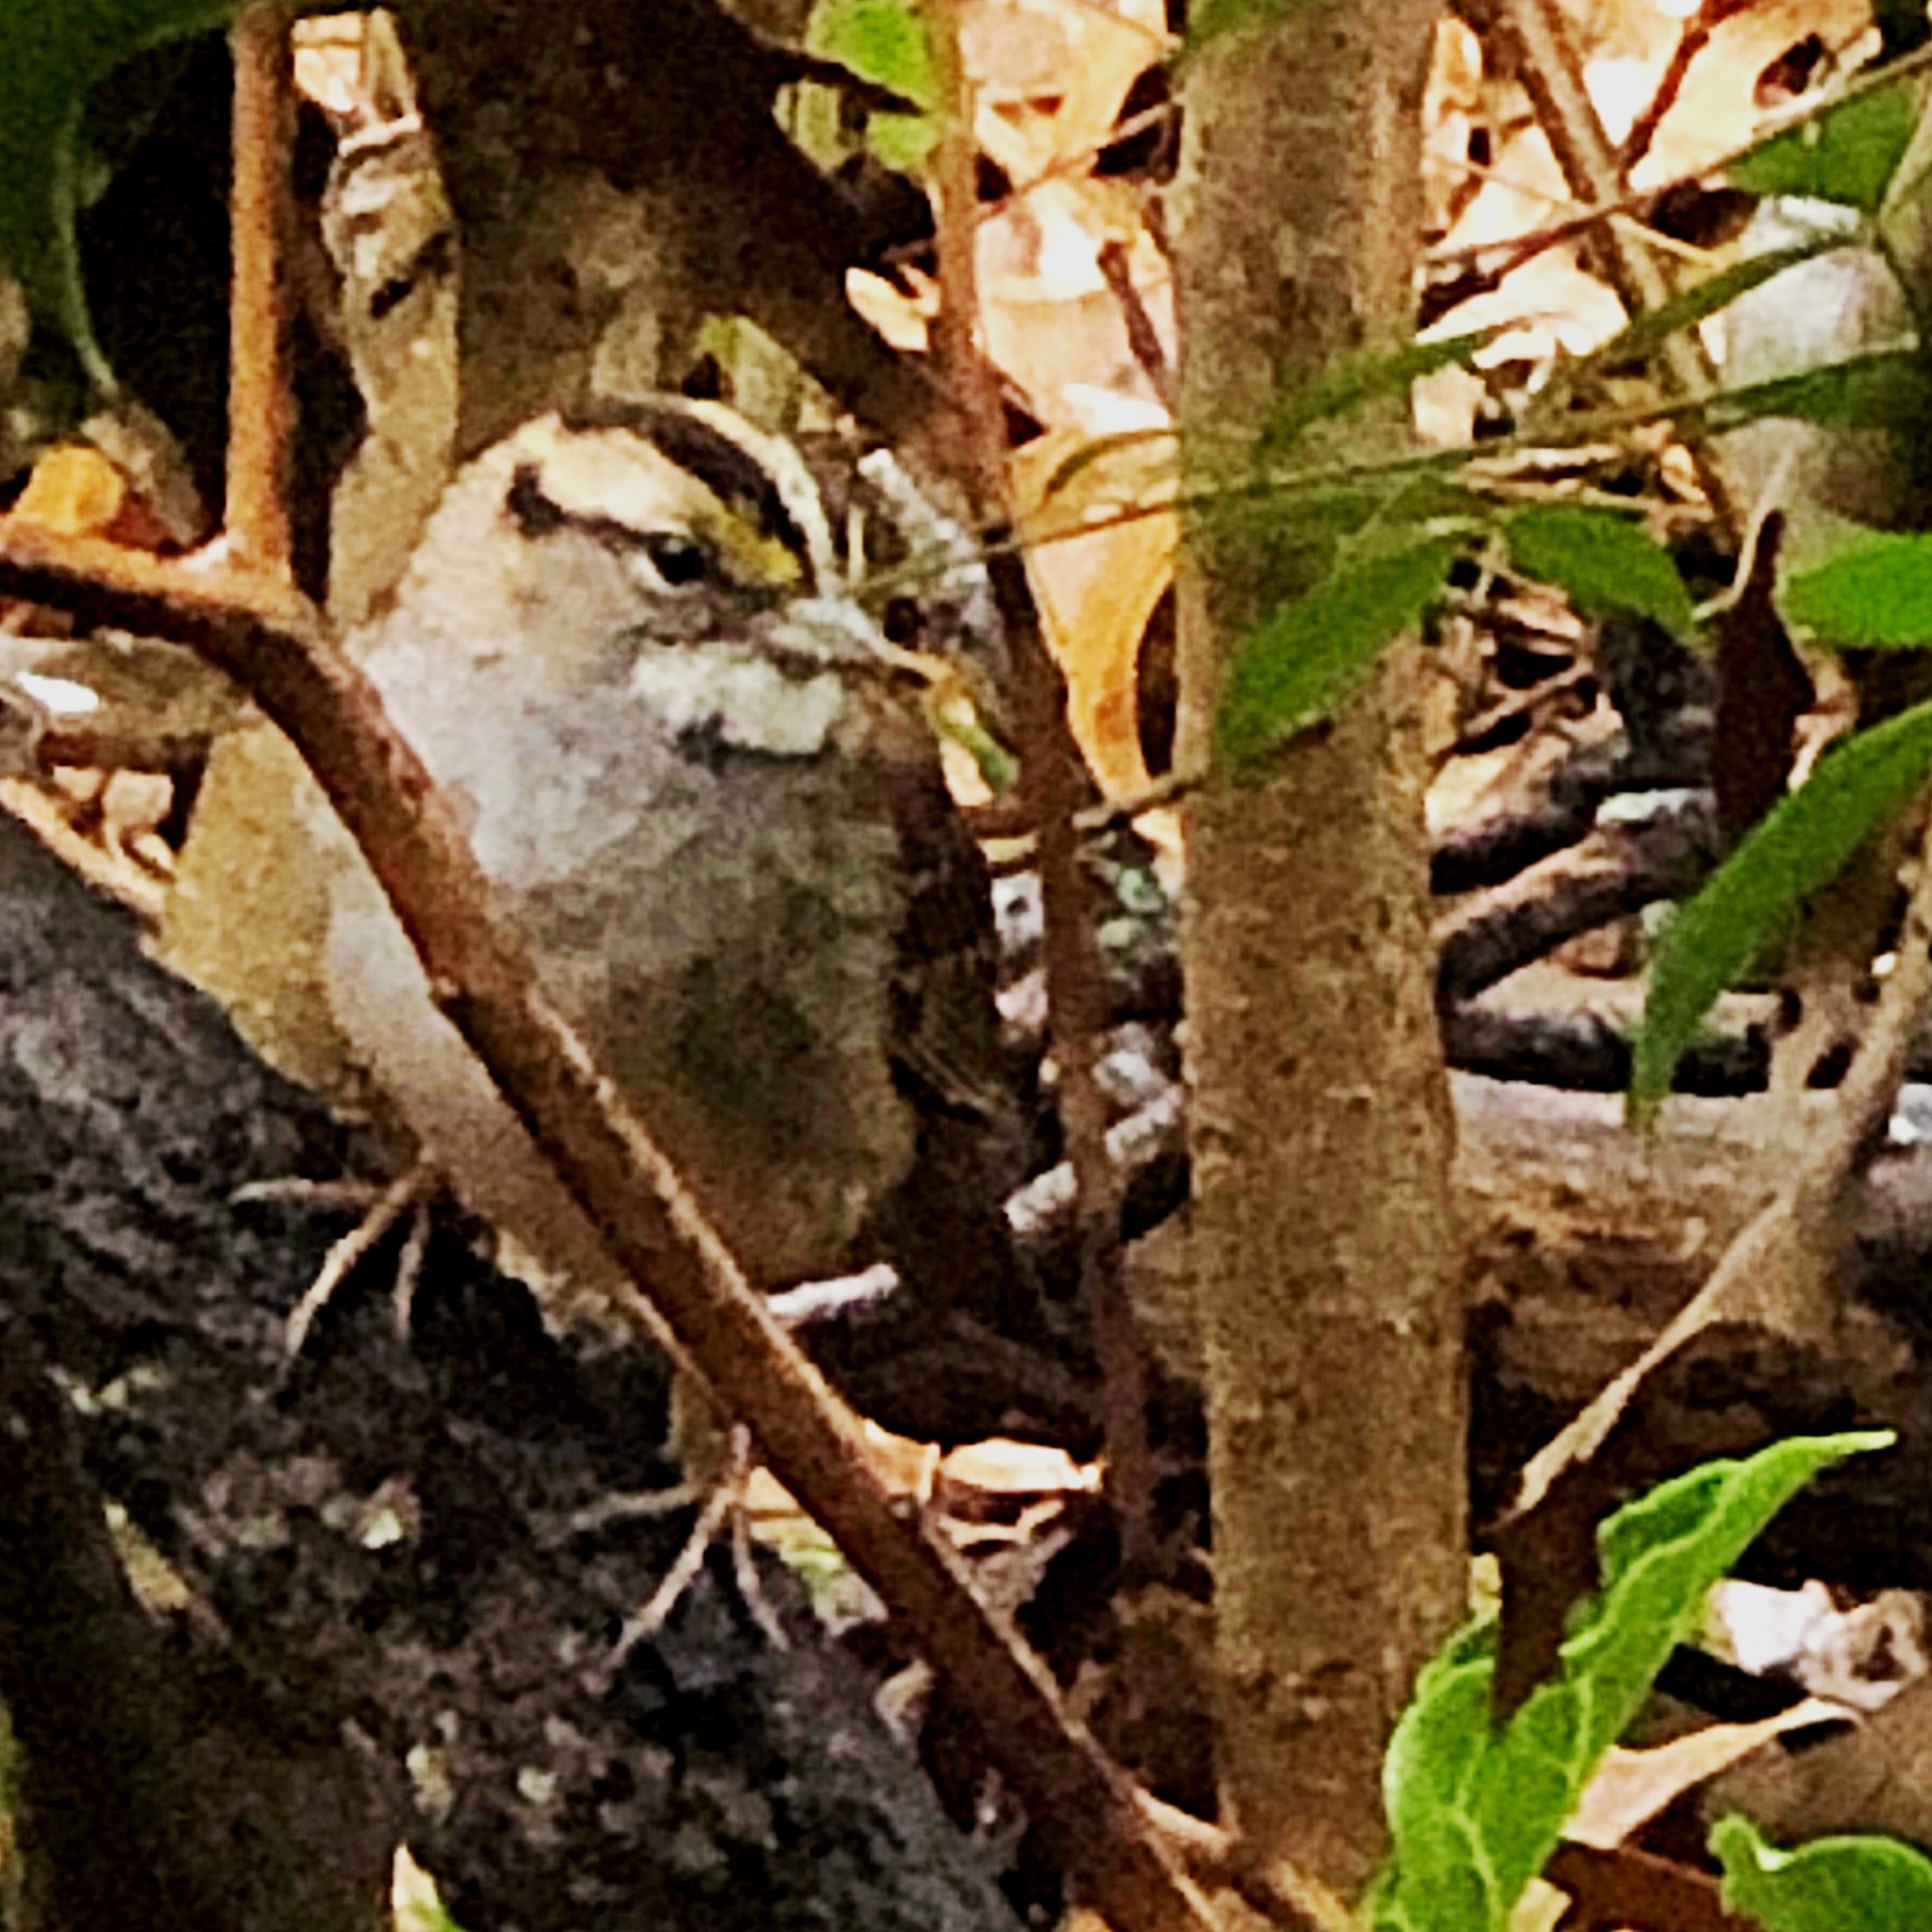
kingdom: Animalia
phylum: Chordata
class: Aves
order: Passeriformes
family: Passerellidae
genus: Zonotrichia
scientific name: Zonotrichia albicollis
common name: White-throated sparrow
